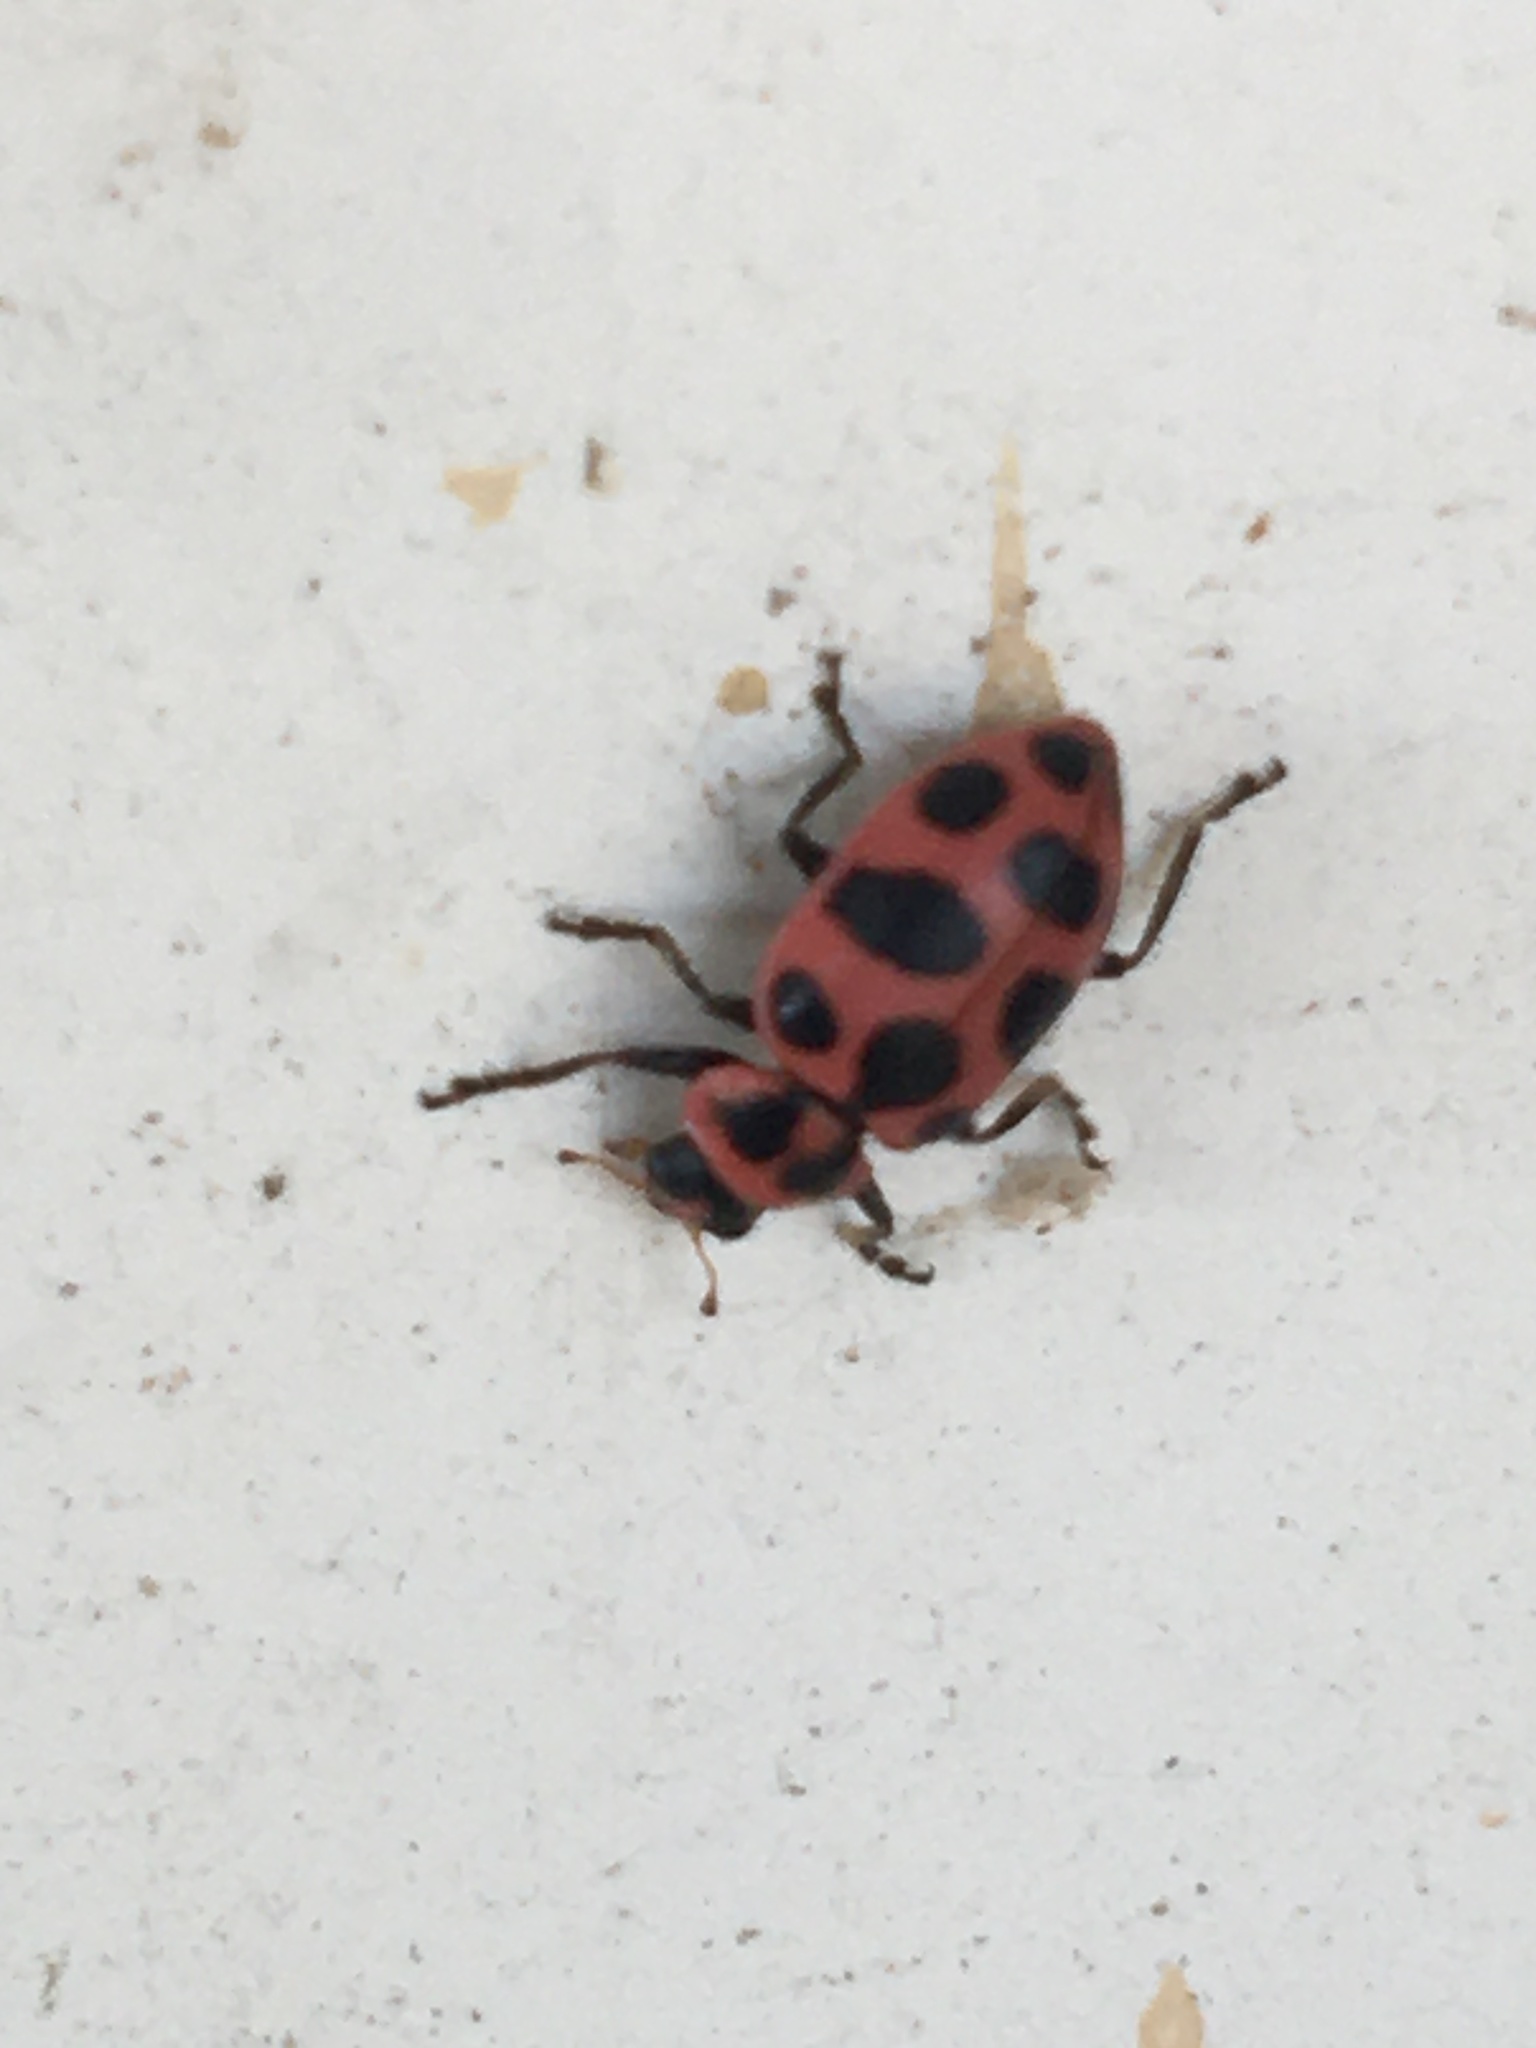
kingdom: Animalia
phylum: Arthropoda
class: Insecta
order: Coleoptera
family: Coccinellidae
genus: Coleomegilla
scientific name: Coleomegilla maculata
